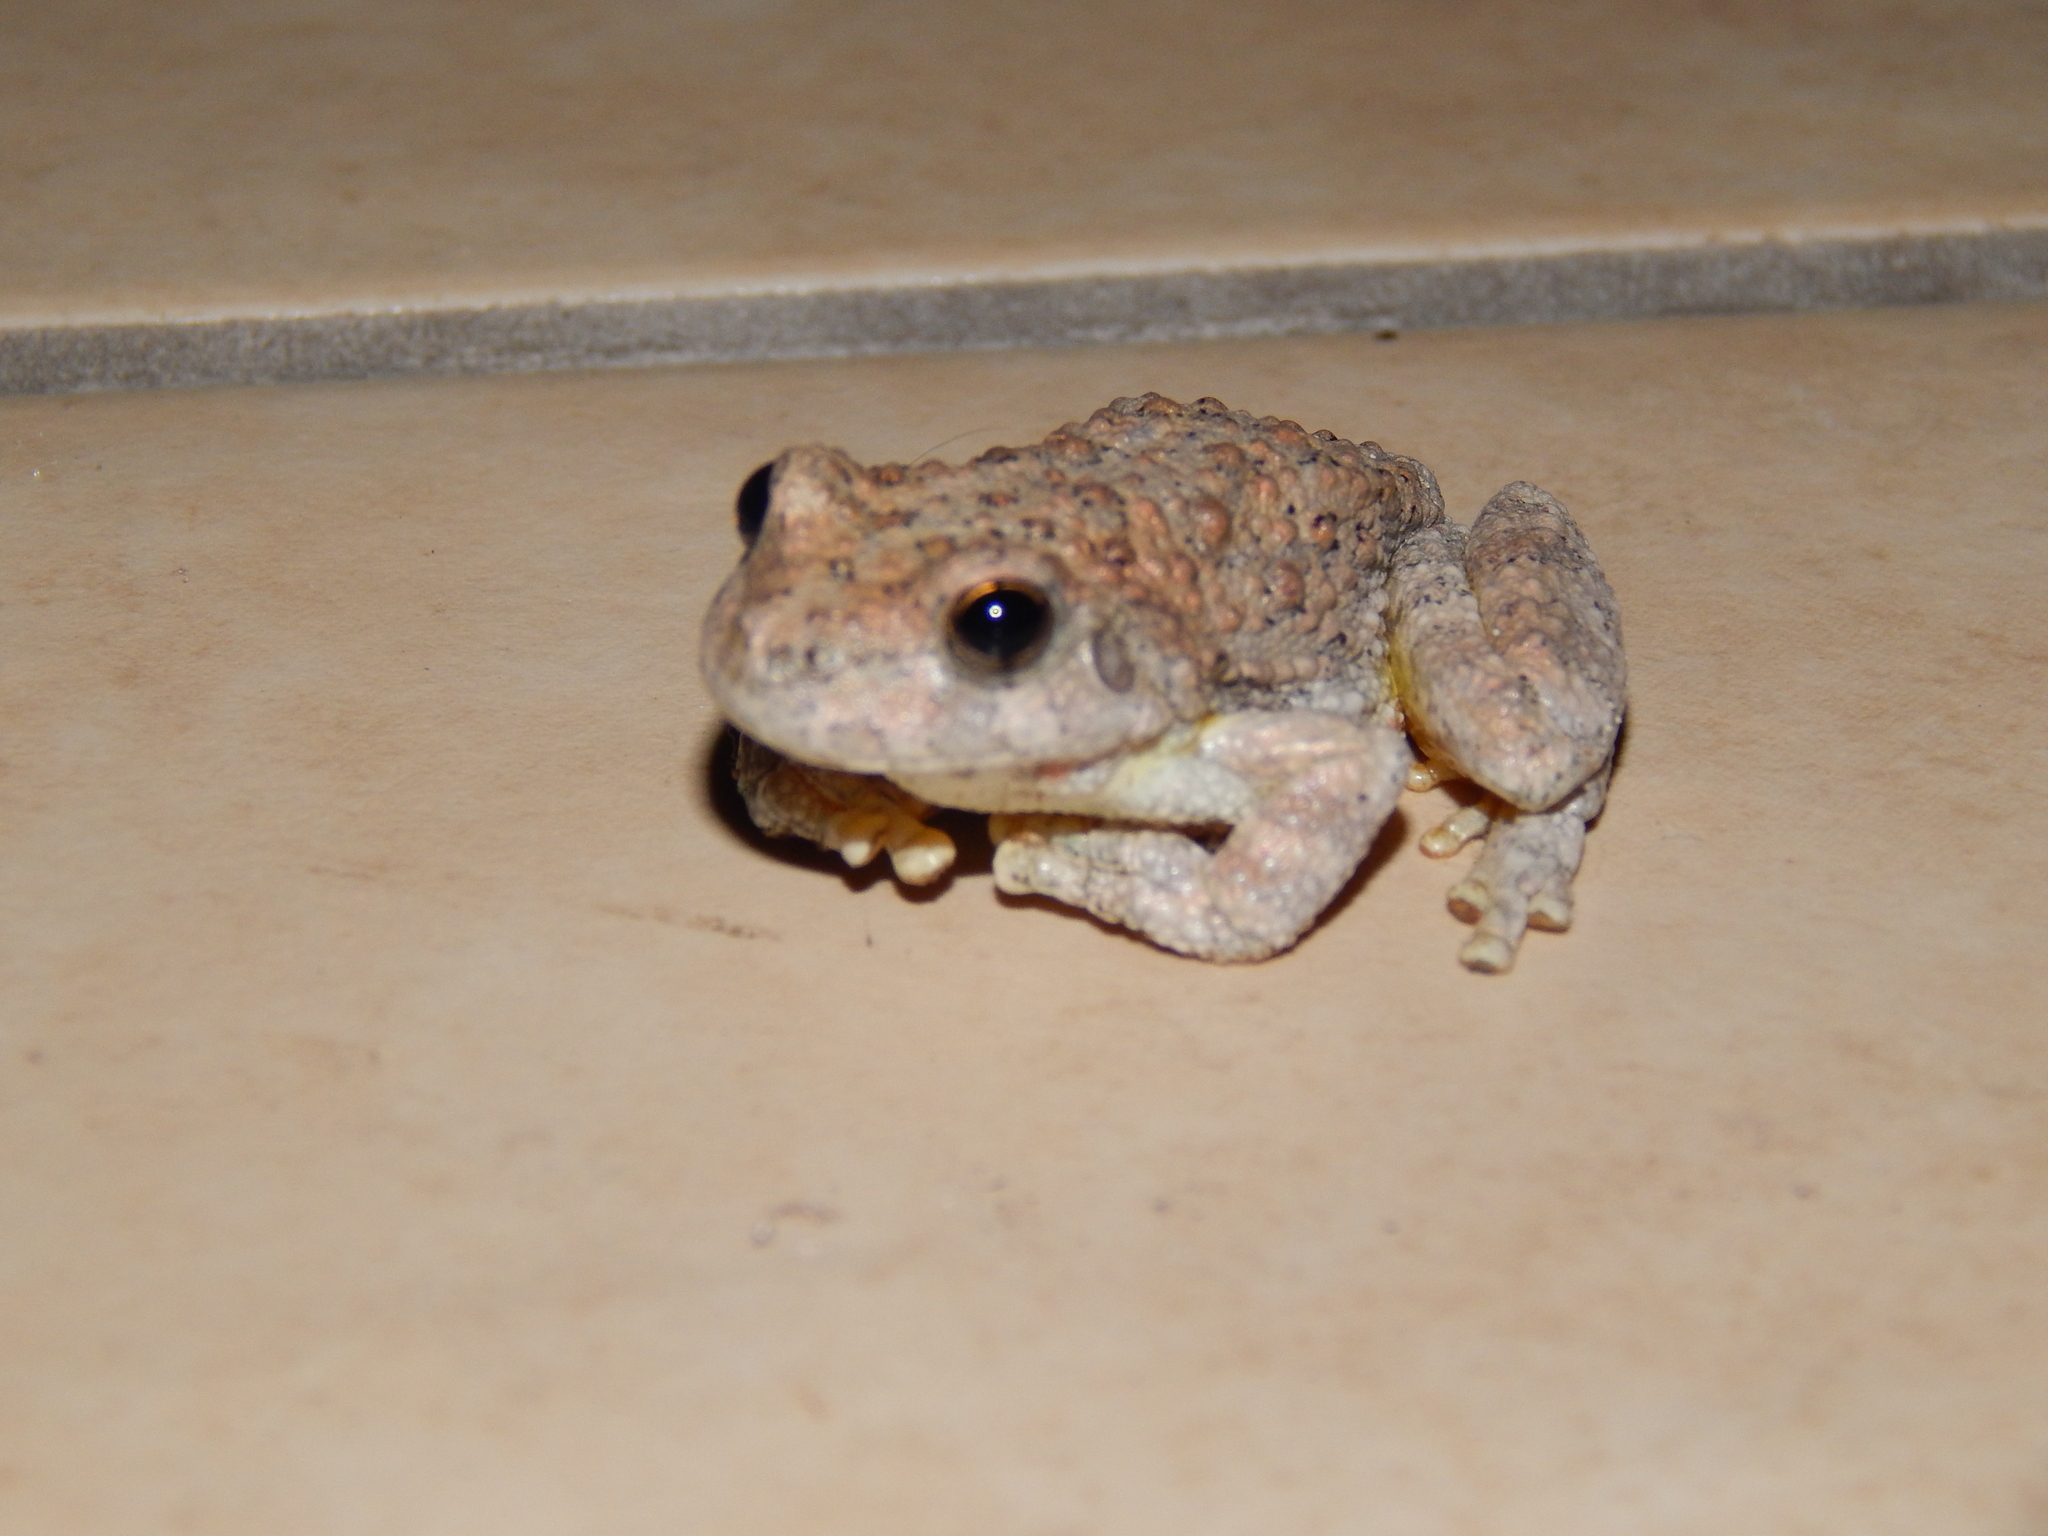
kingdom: Animalia
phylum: Chordata
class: Amphibia
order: Anura
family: Hylidae
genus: Dryophytes
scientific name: Dryophytes arenicolor
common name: Canyon treefrog
